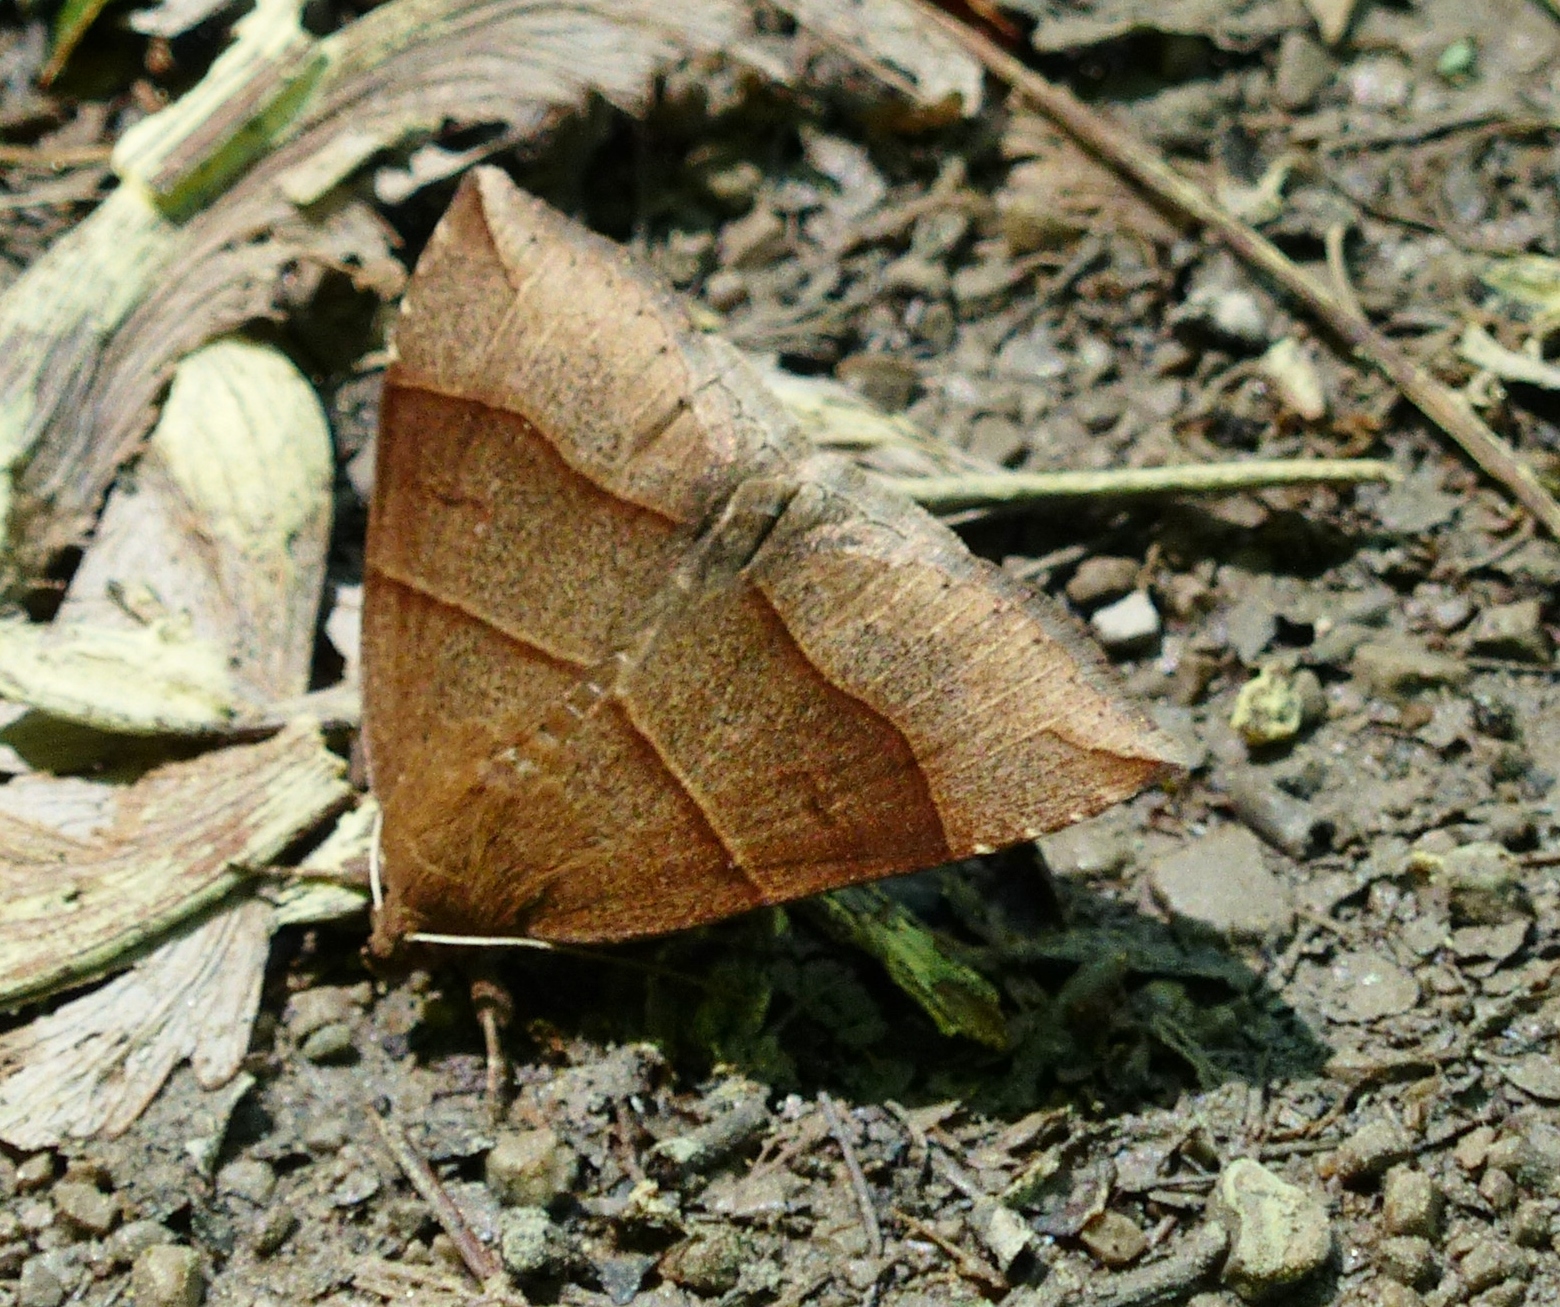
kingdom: Animalia
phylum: Arthropoda
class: Insecta
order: Lepidoptera
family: Erebidae
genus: Parallelia
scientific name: Parallelia bistriaris
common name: Maple looper moth
